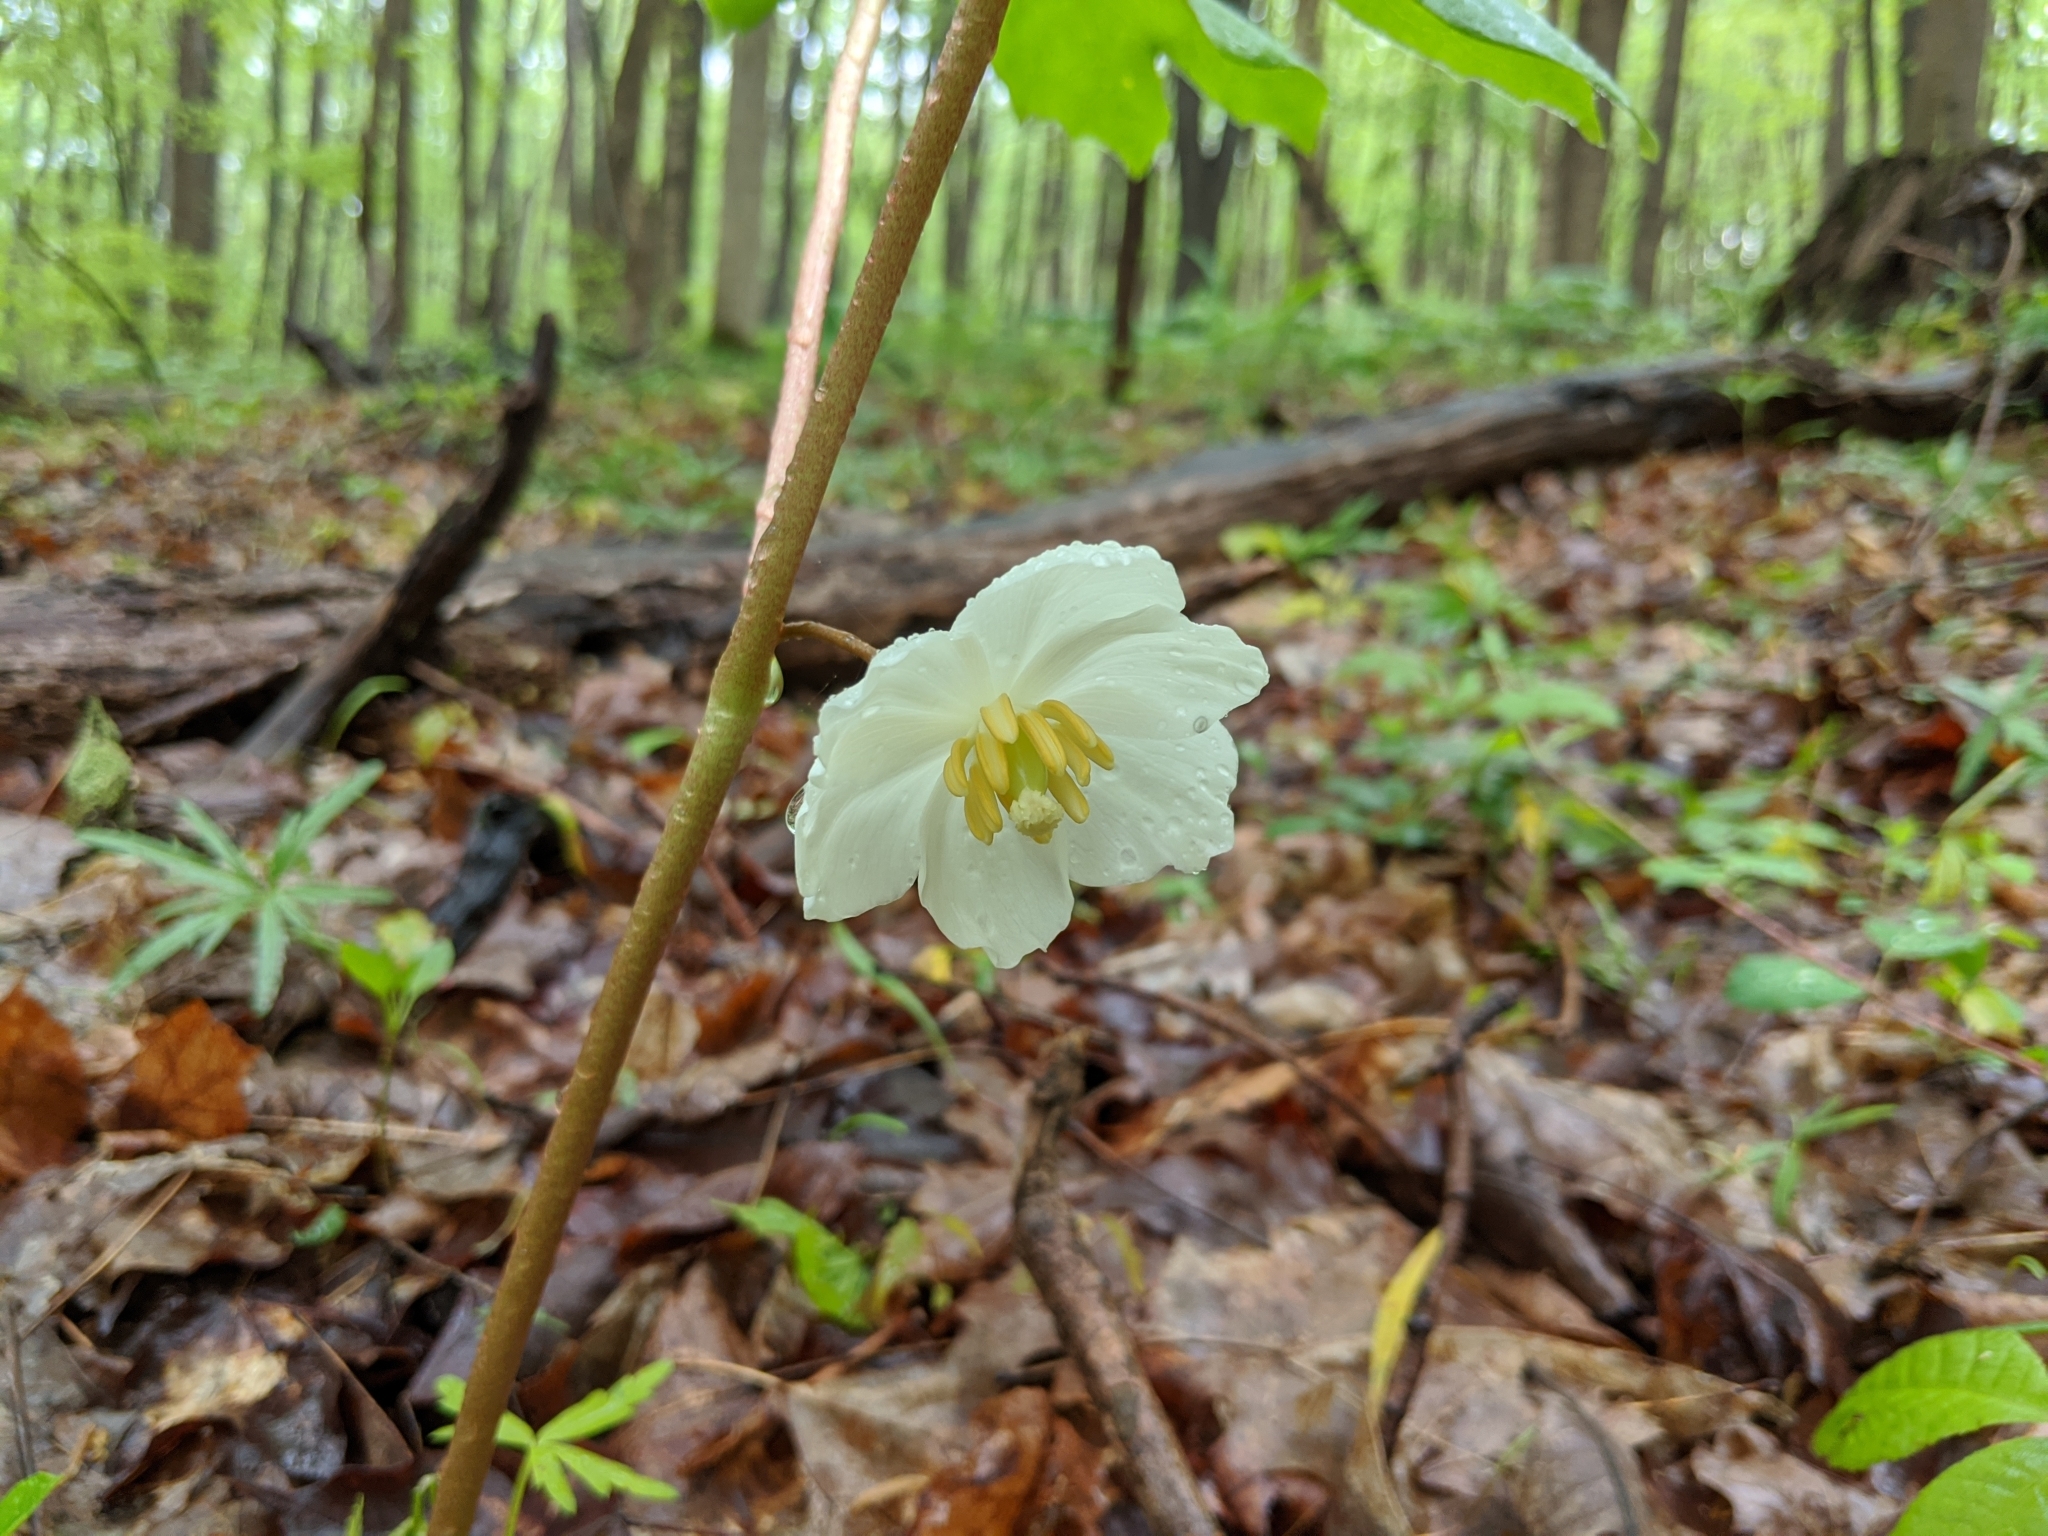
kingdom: Plantae
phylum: Tracheophyta
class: Magnoliopsida
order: Ranunculales
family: Berberidaceae
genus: Podophyllum
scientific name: Podophyllum peltatum
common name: Wild mandrake
